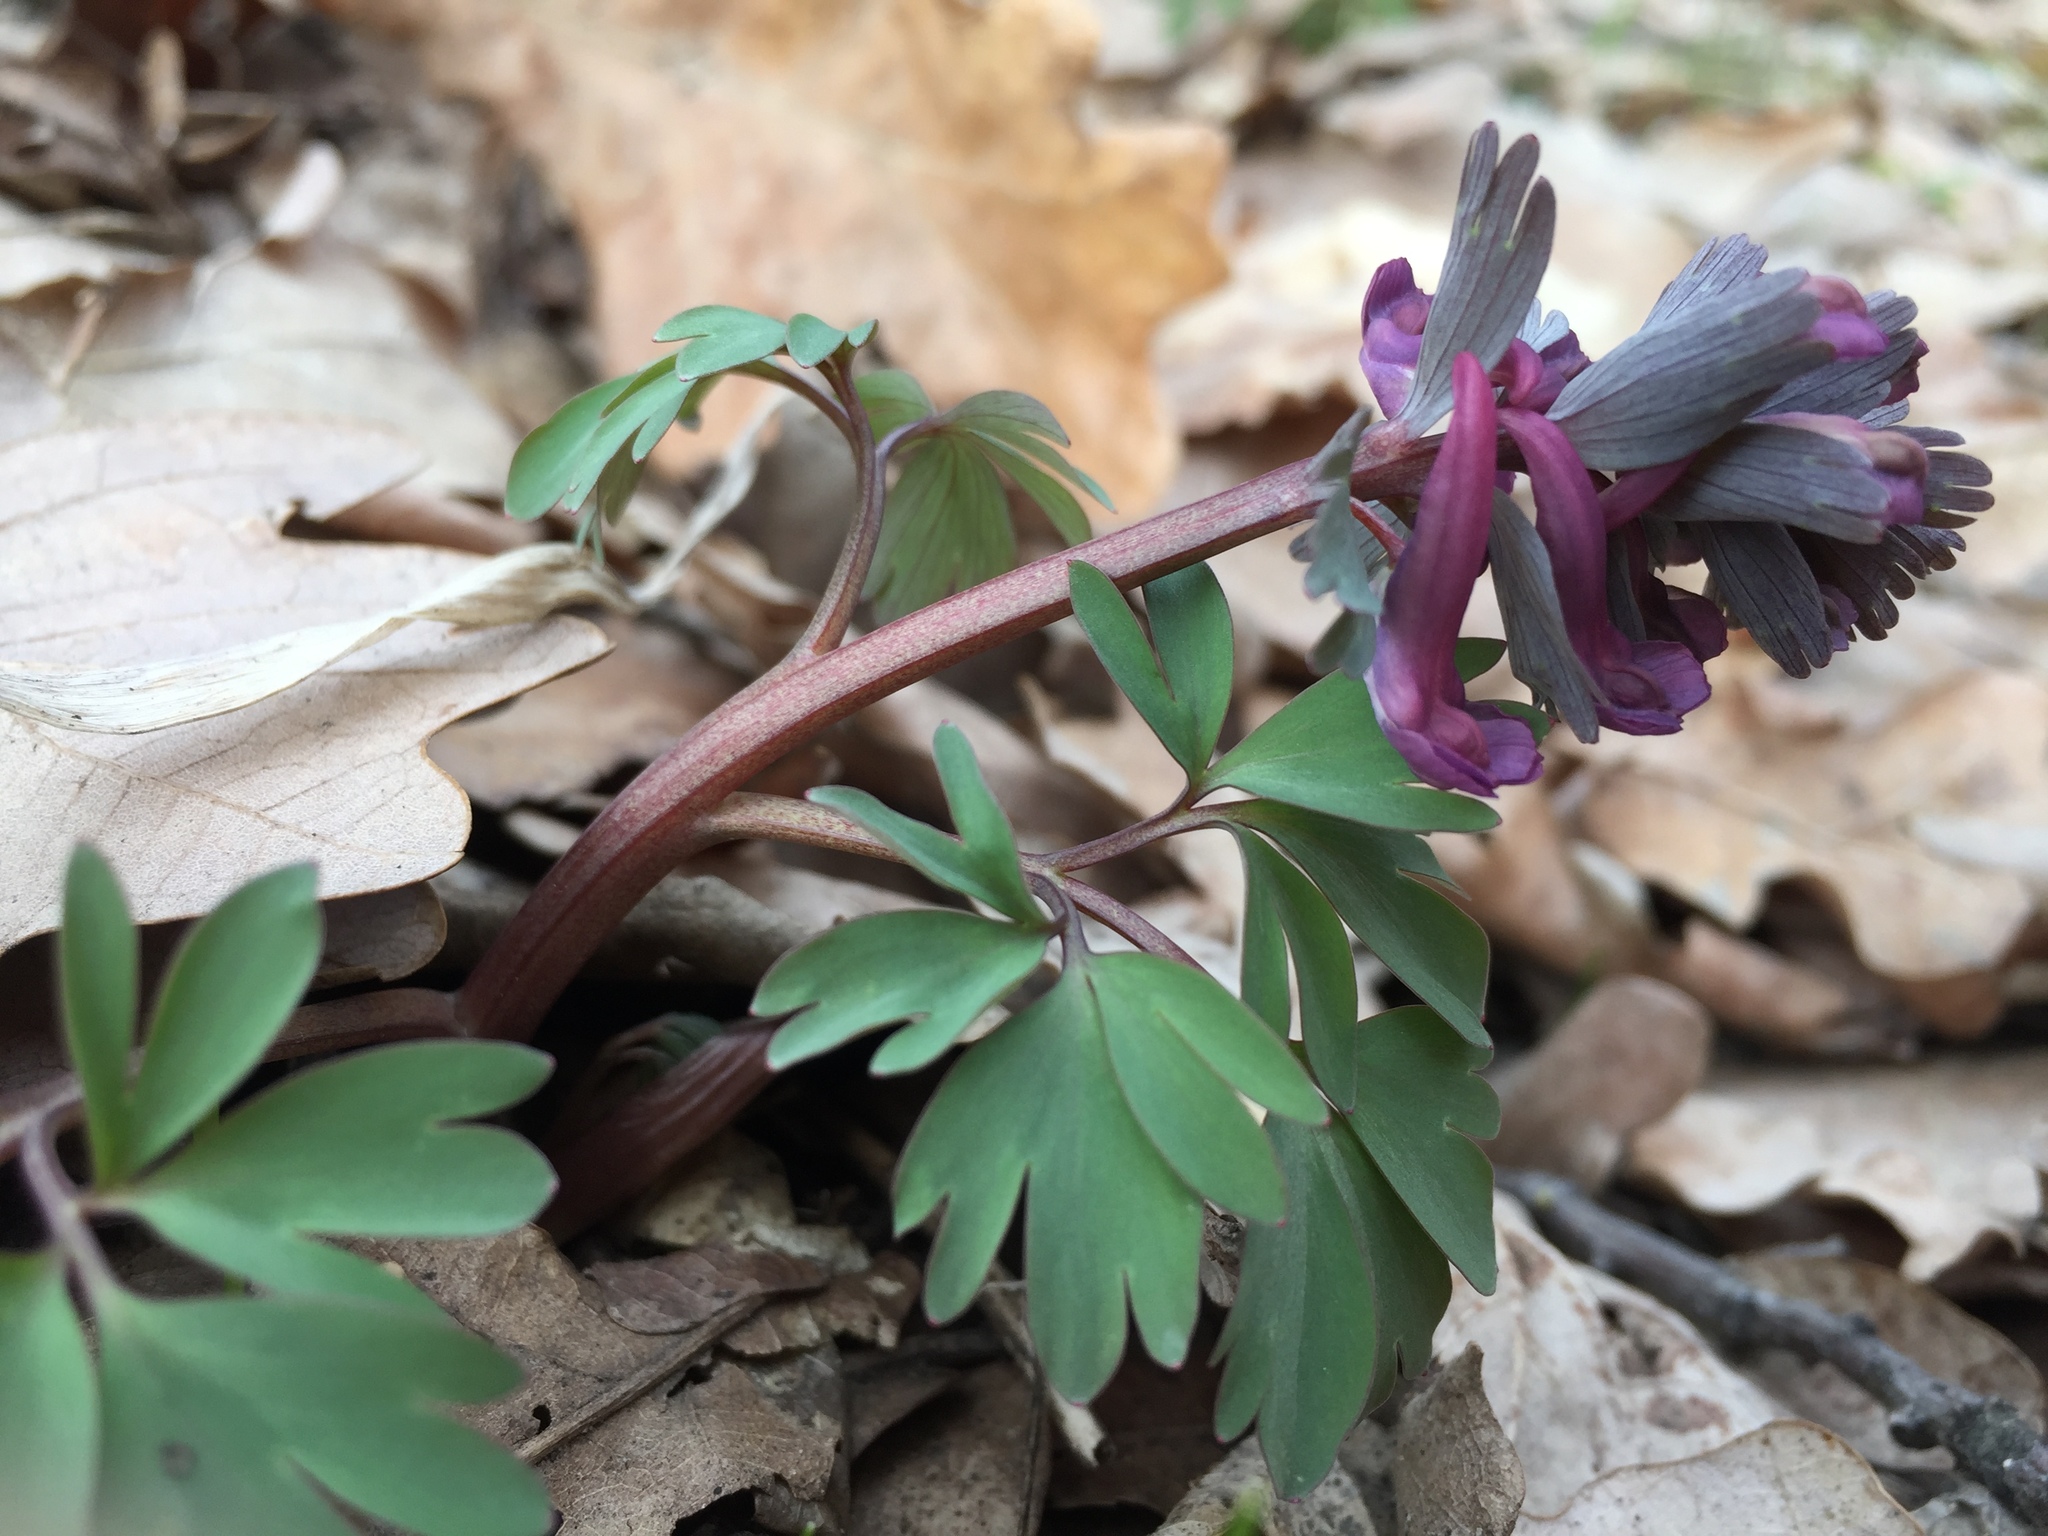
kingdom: Plantae
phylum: Tracheophyta
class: Magnoliopsida
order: Ranunculales
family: Papaveraceae
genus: Corydalis
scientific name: Corydalis solida
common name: Bird-in-a-bush
